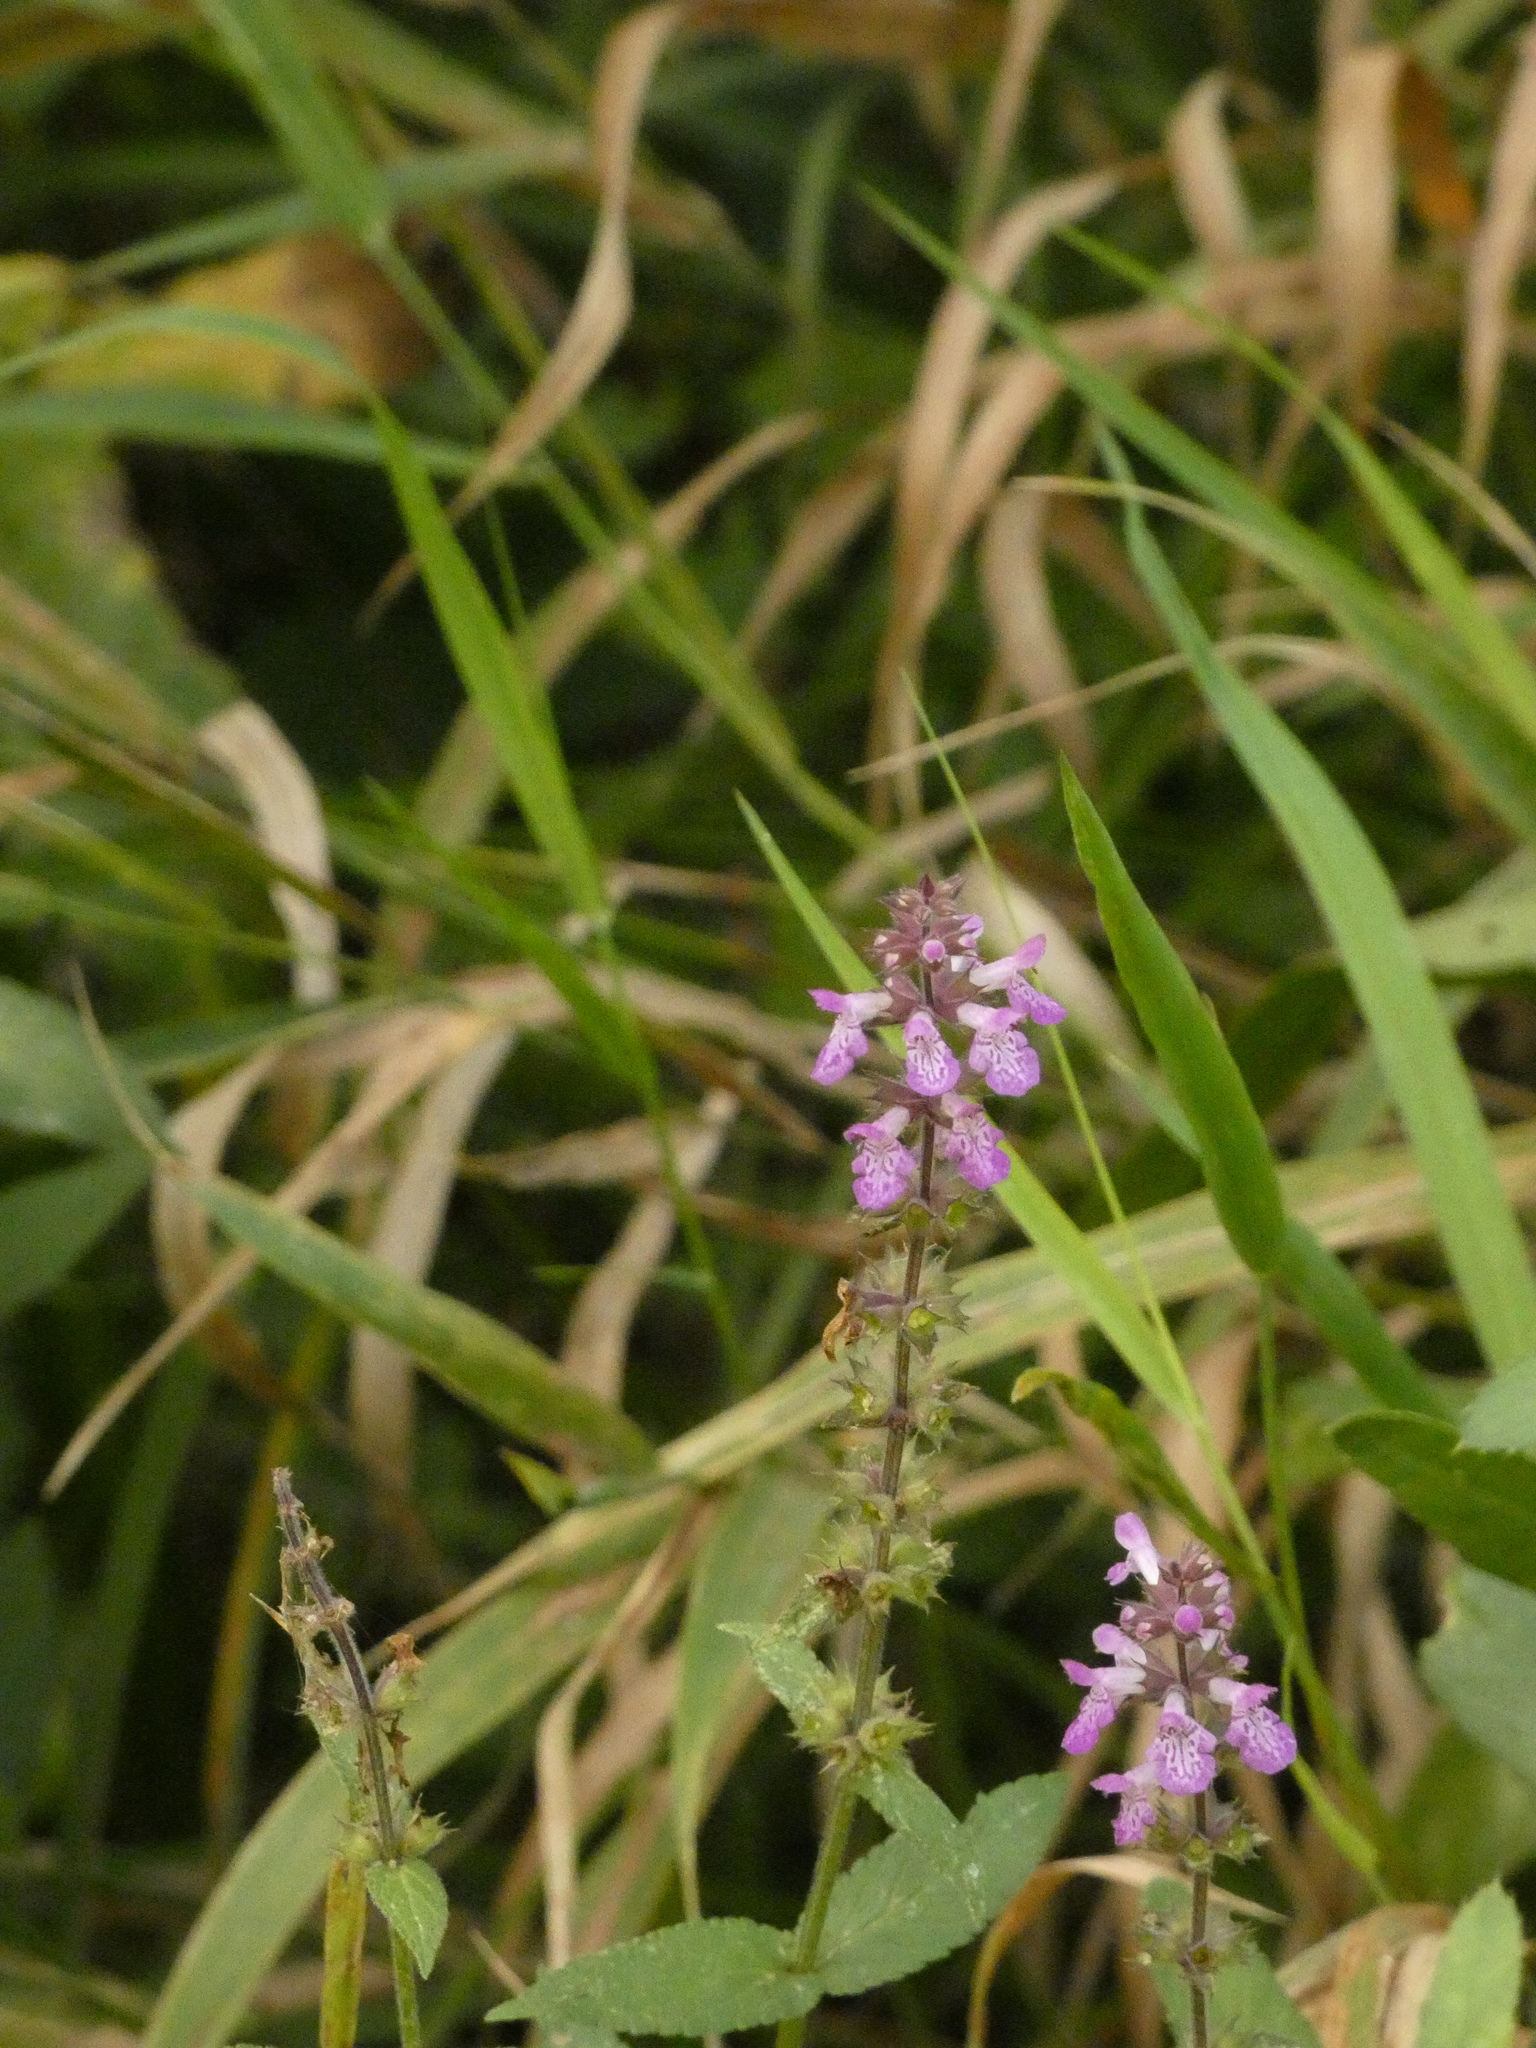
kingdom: Plantae
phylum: Tracheophyta
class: Magnoliopsida
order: Lamiales
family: Lamiaceae
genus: Stachys
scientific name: Stachys palustris
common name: Marsh woundwort
